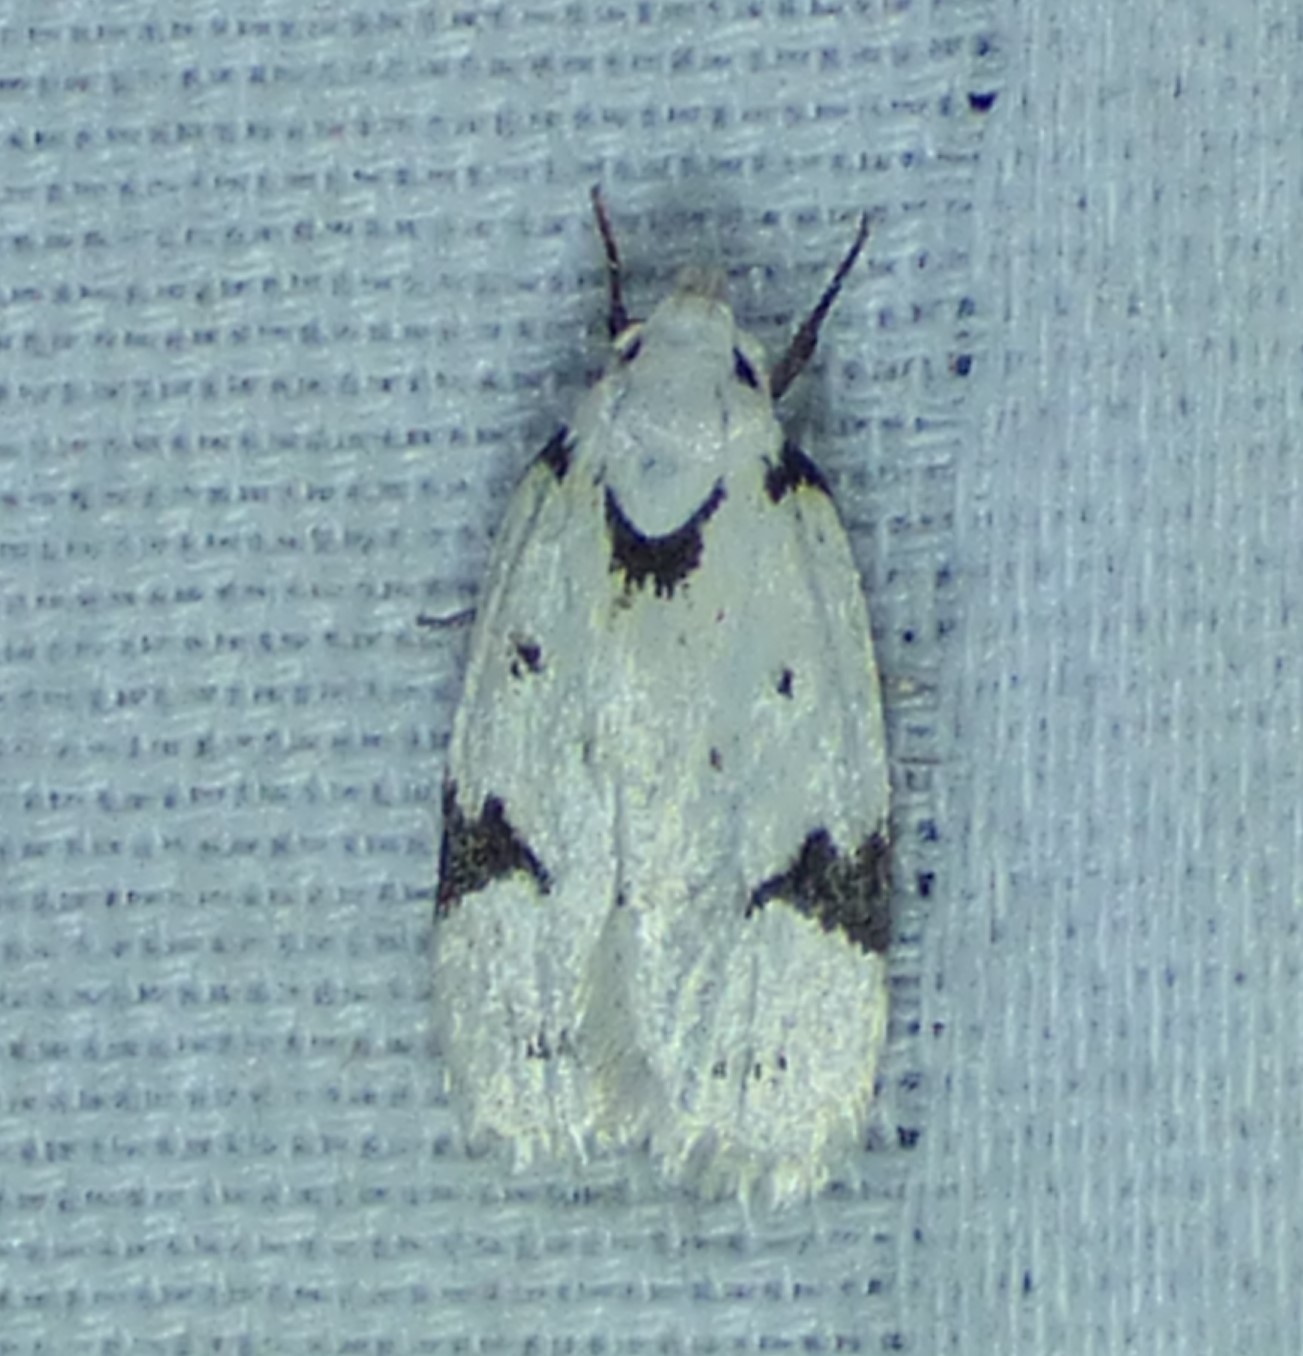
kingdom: Animalia
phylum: Arthropoda
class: Insecta
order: Lepidoptera
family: Oecophoridae
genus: Inga
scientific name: Inga sparsiciliella
